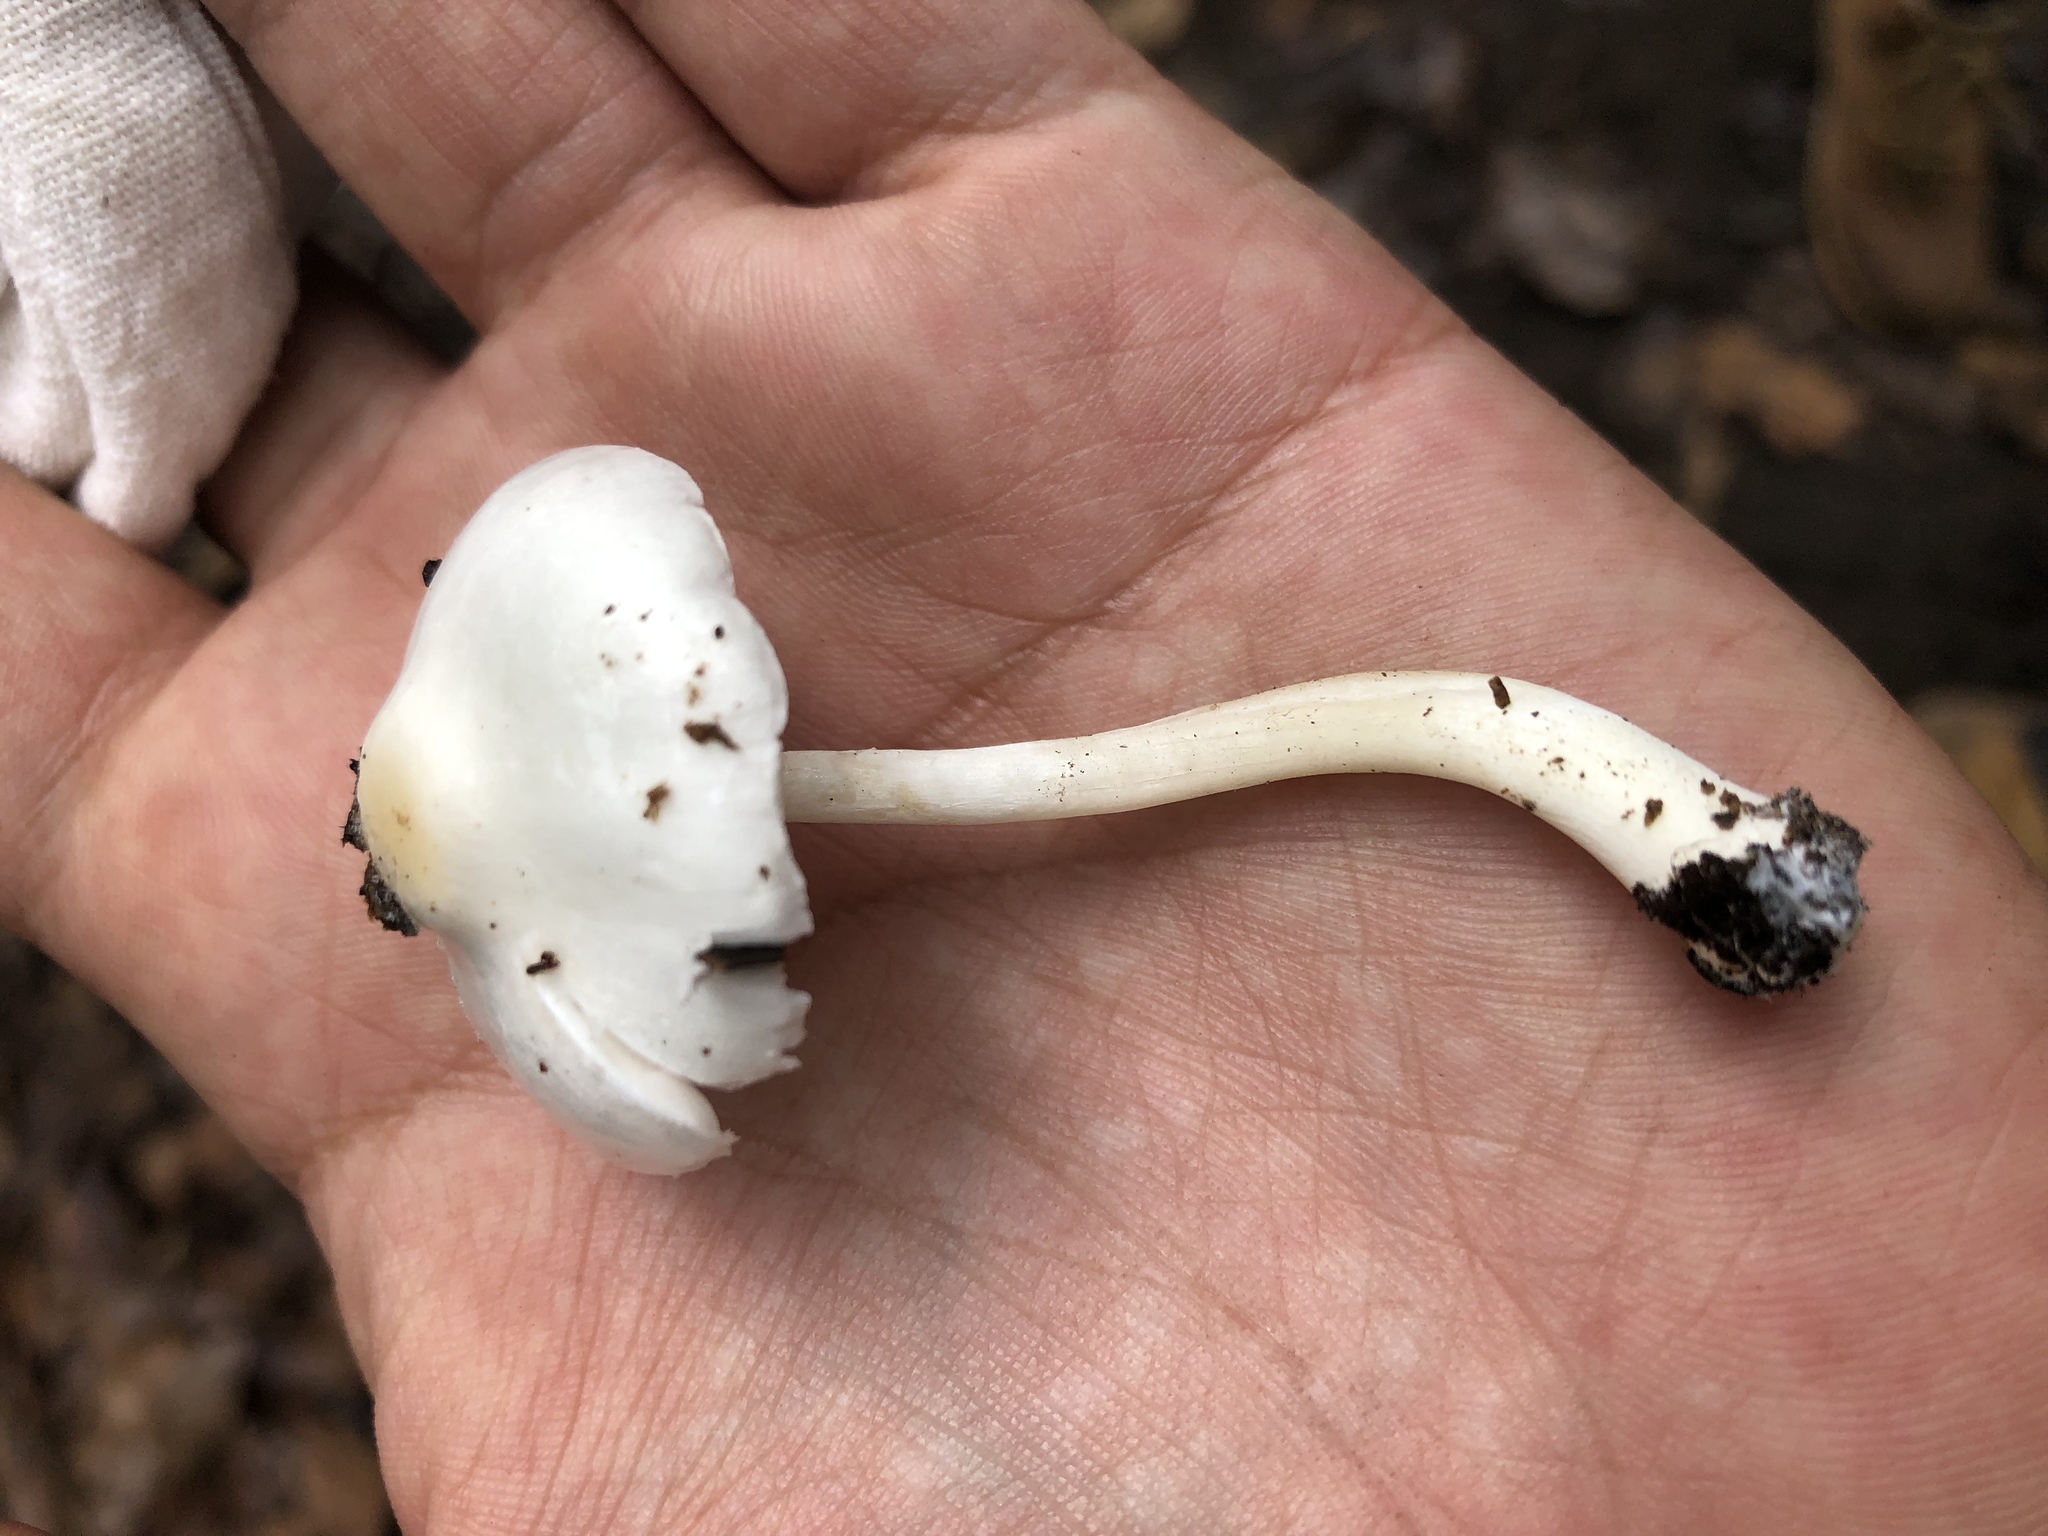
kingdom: Fungi
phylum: Basidiomycota
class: Agaricomycetes
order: Agaricales
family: Amanitaceae
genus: Amanita
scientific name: Amanita bisporigera
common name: Eastern north american destroying angel
